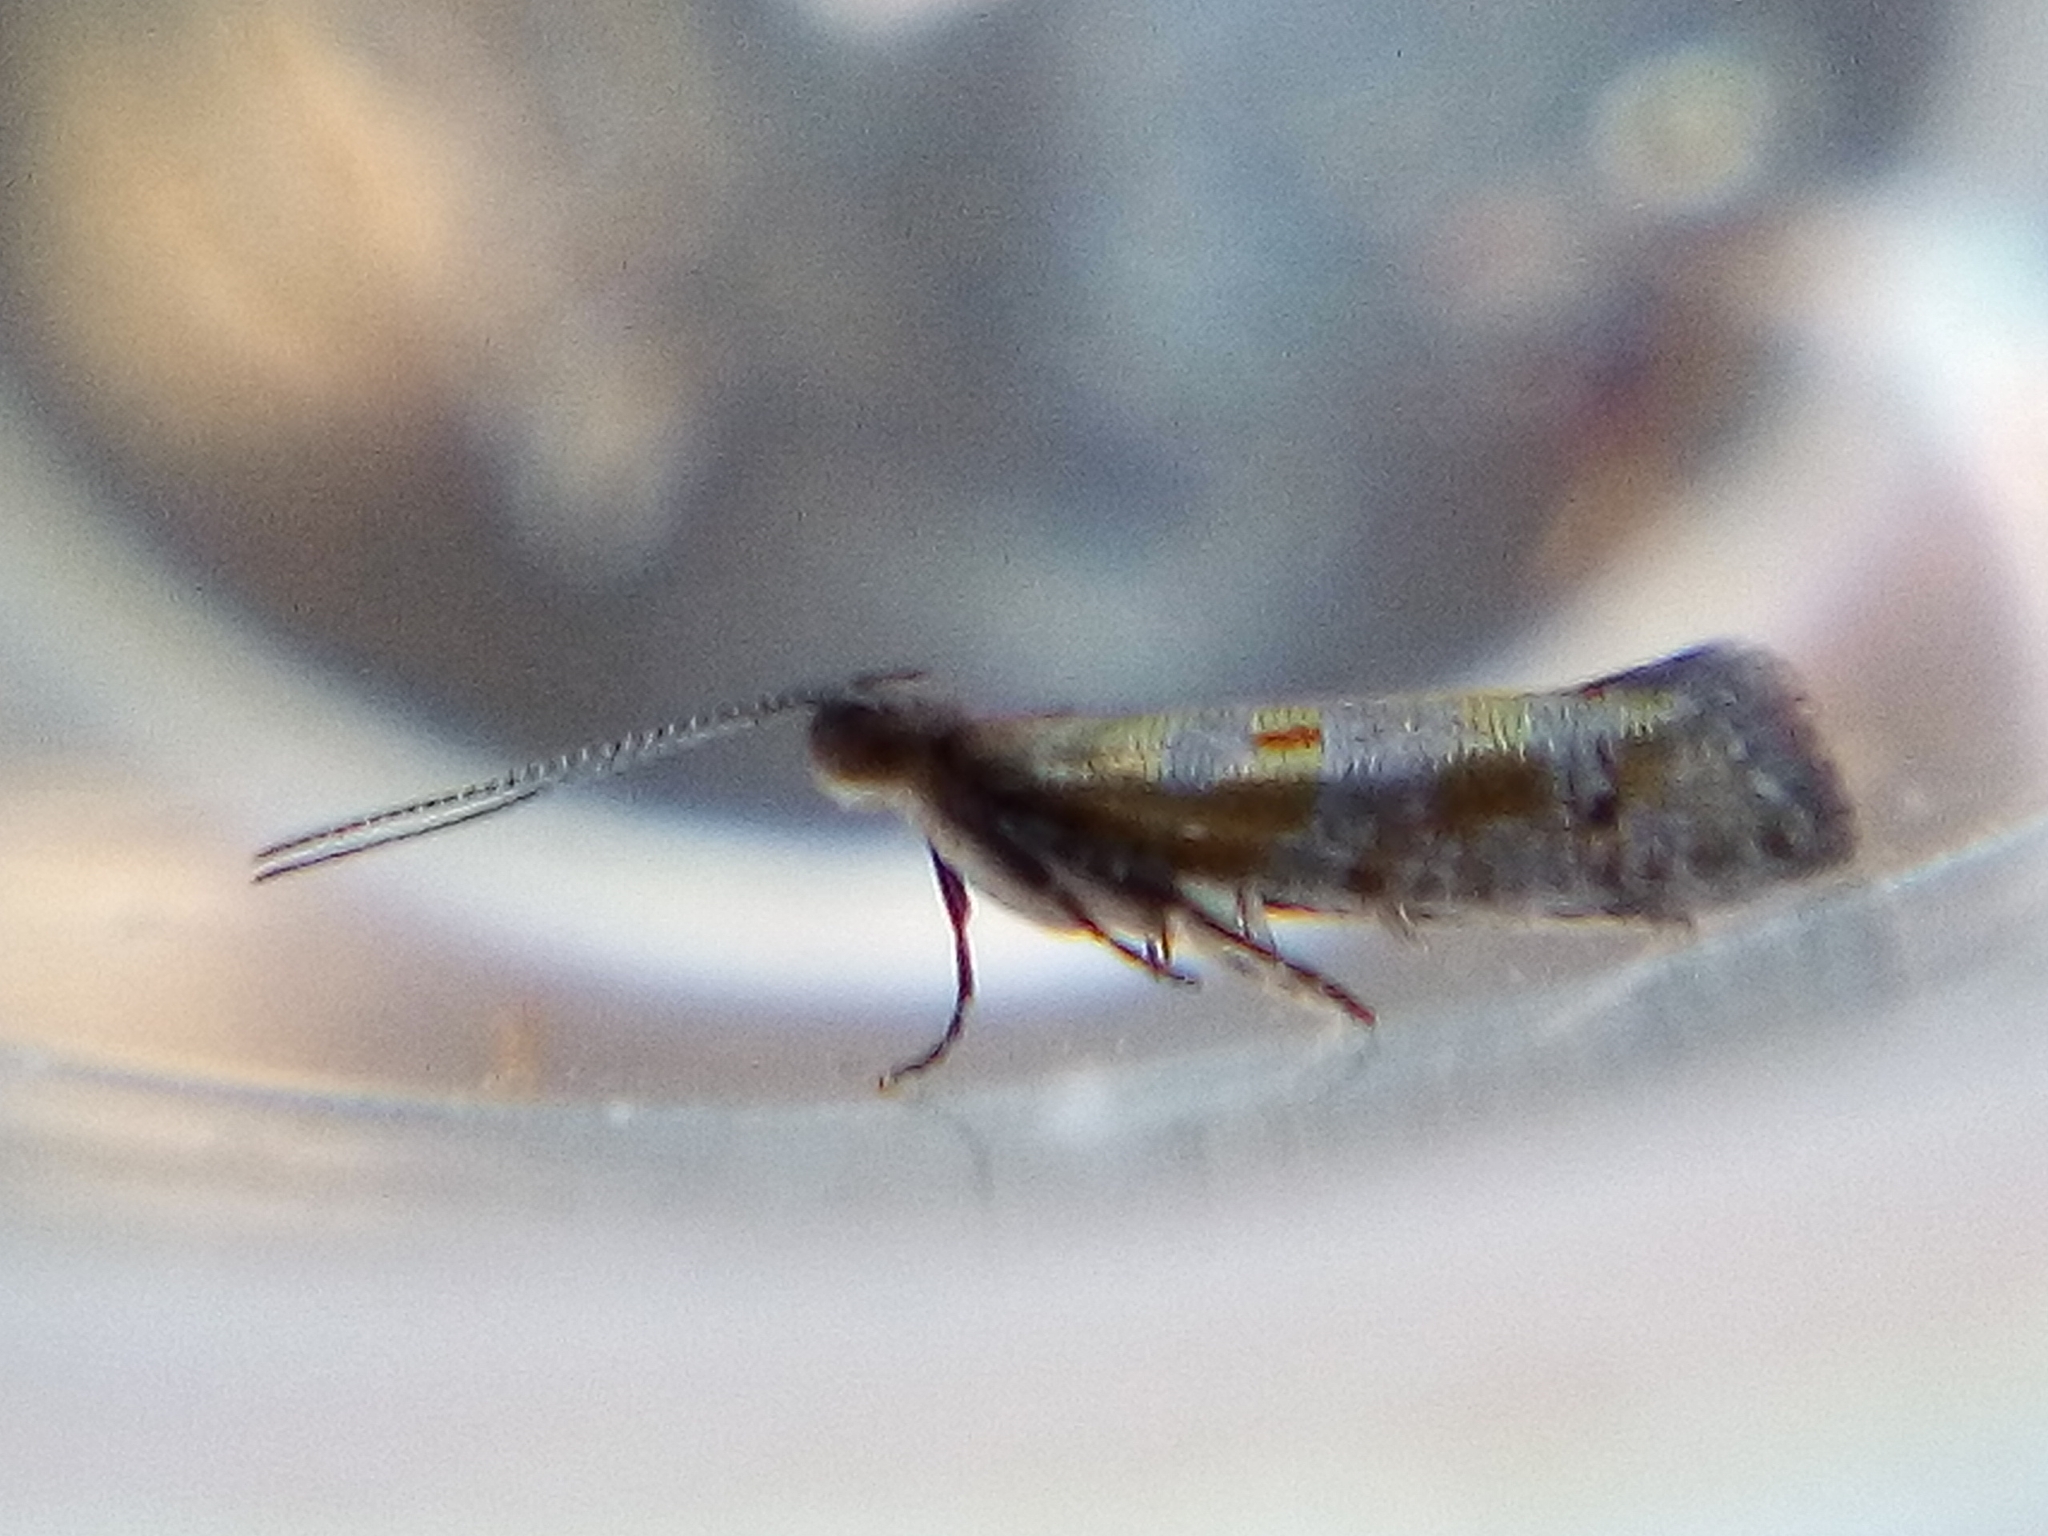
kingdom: Animalia
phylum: Arthropoda
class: Insecta
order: Lepidoptera
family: Glyphipterigidae
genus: Chrysorthenches
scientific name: Chrysorthenches drosochalca
